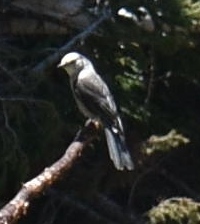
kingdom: Animalia
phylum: Chordata
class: Aves
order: Passeriformes
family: Corvidae
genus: Perisoreus
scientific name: Perisoreus canadensis
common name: Gray jay
